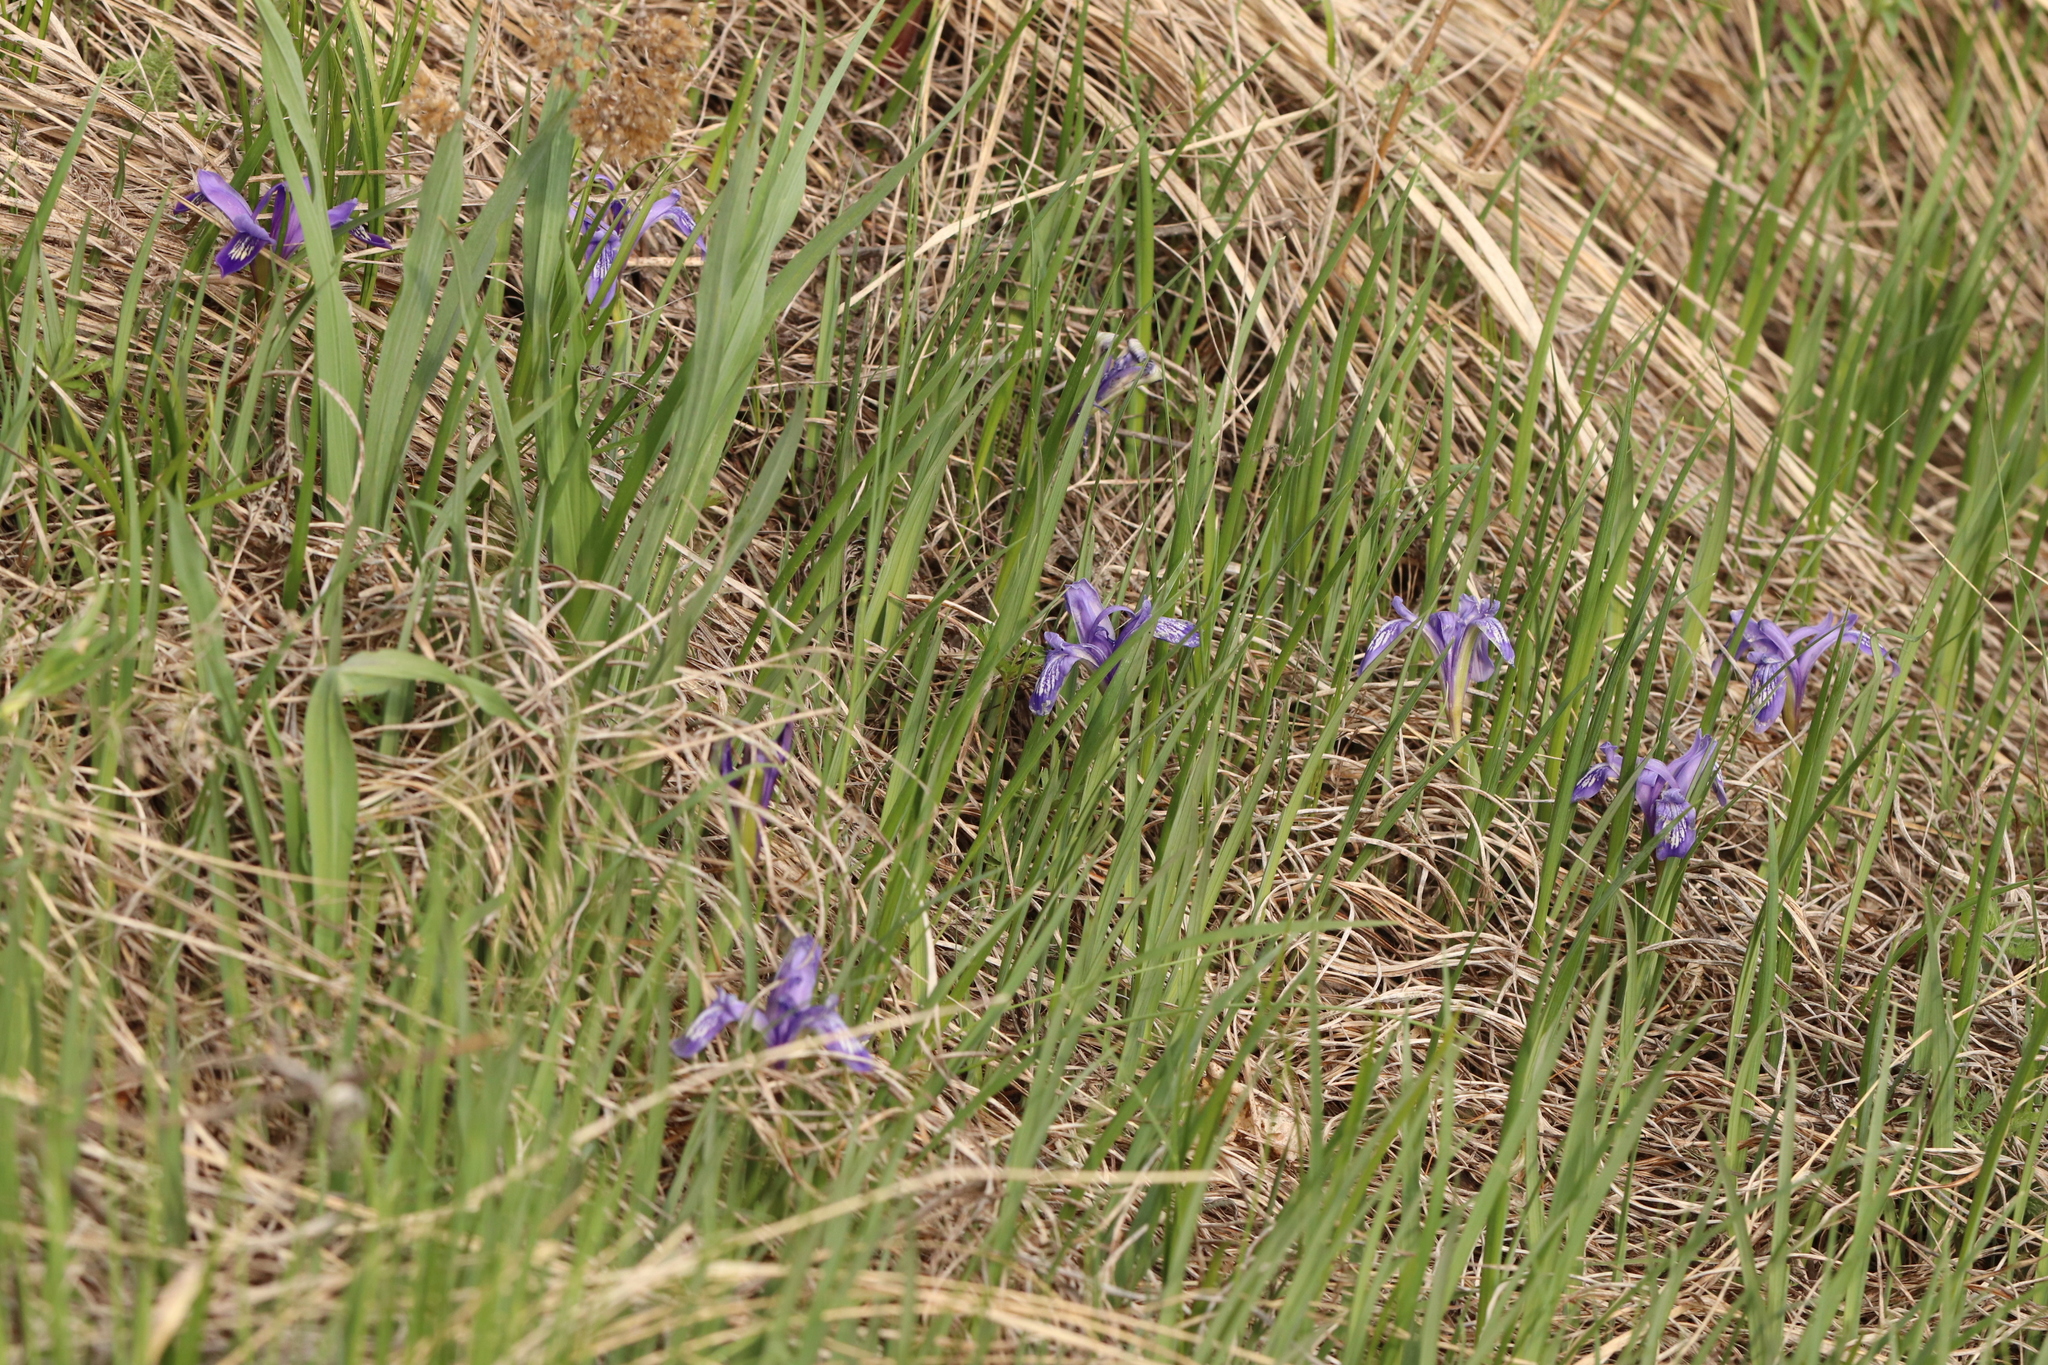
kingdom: Plantae
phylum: Tracheophyta
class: Liliopsida
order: Asparagales
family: Iridaceae
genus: Iris
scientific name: Iris ruthenica
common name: Purple-bract iris
